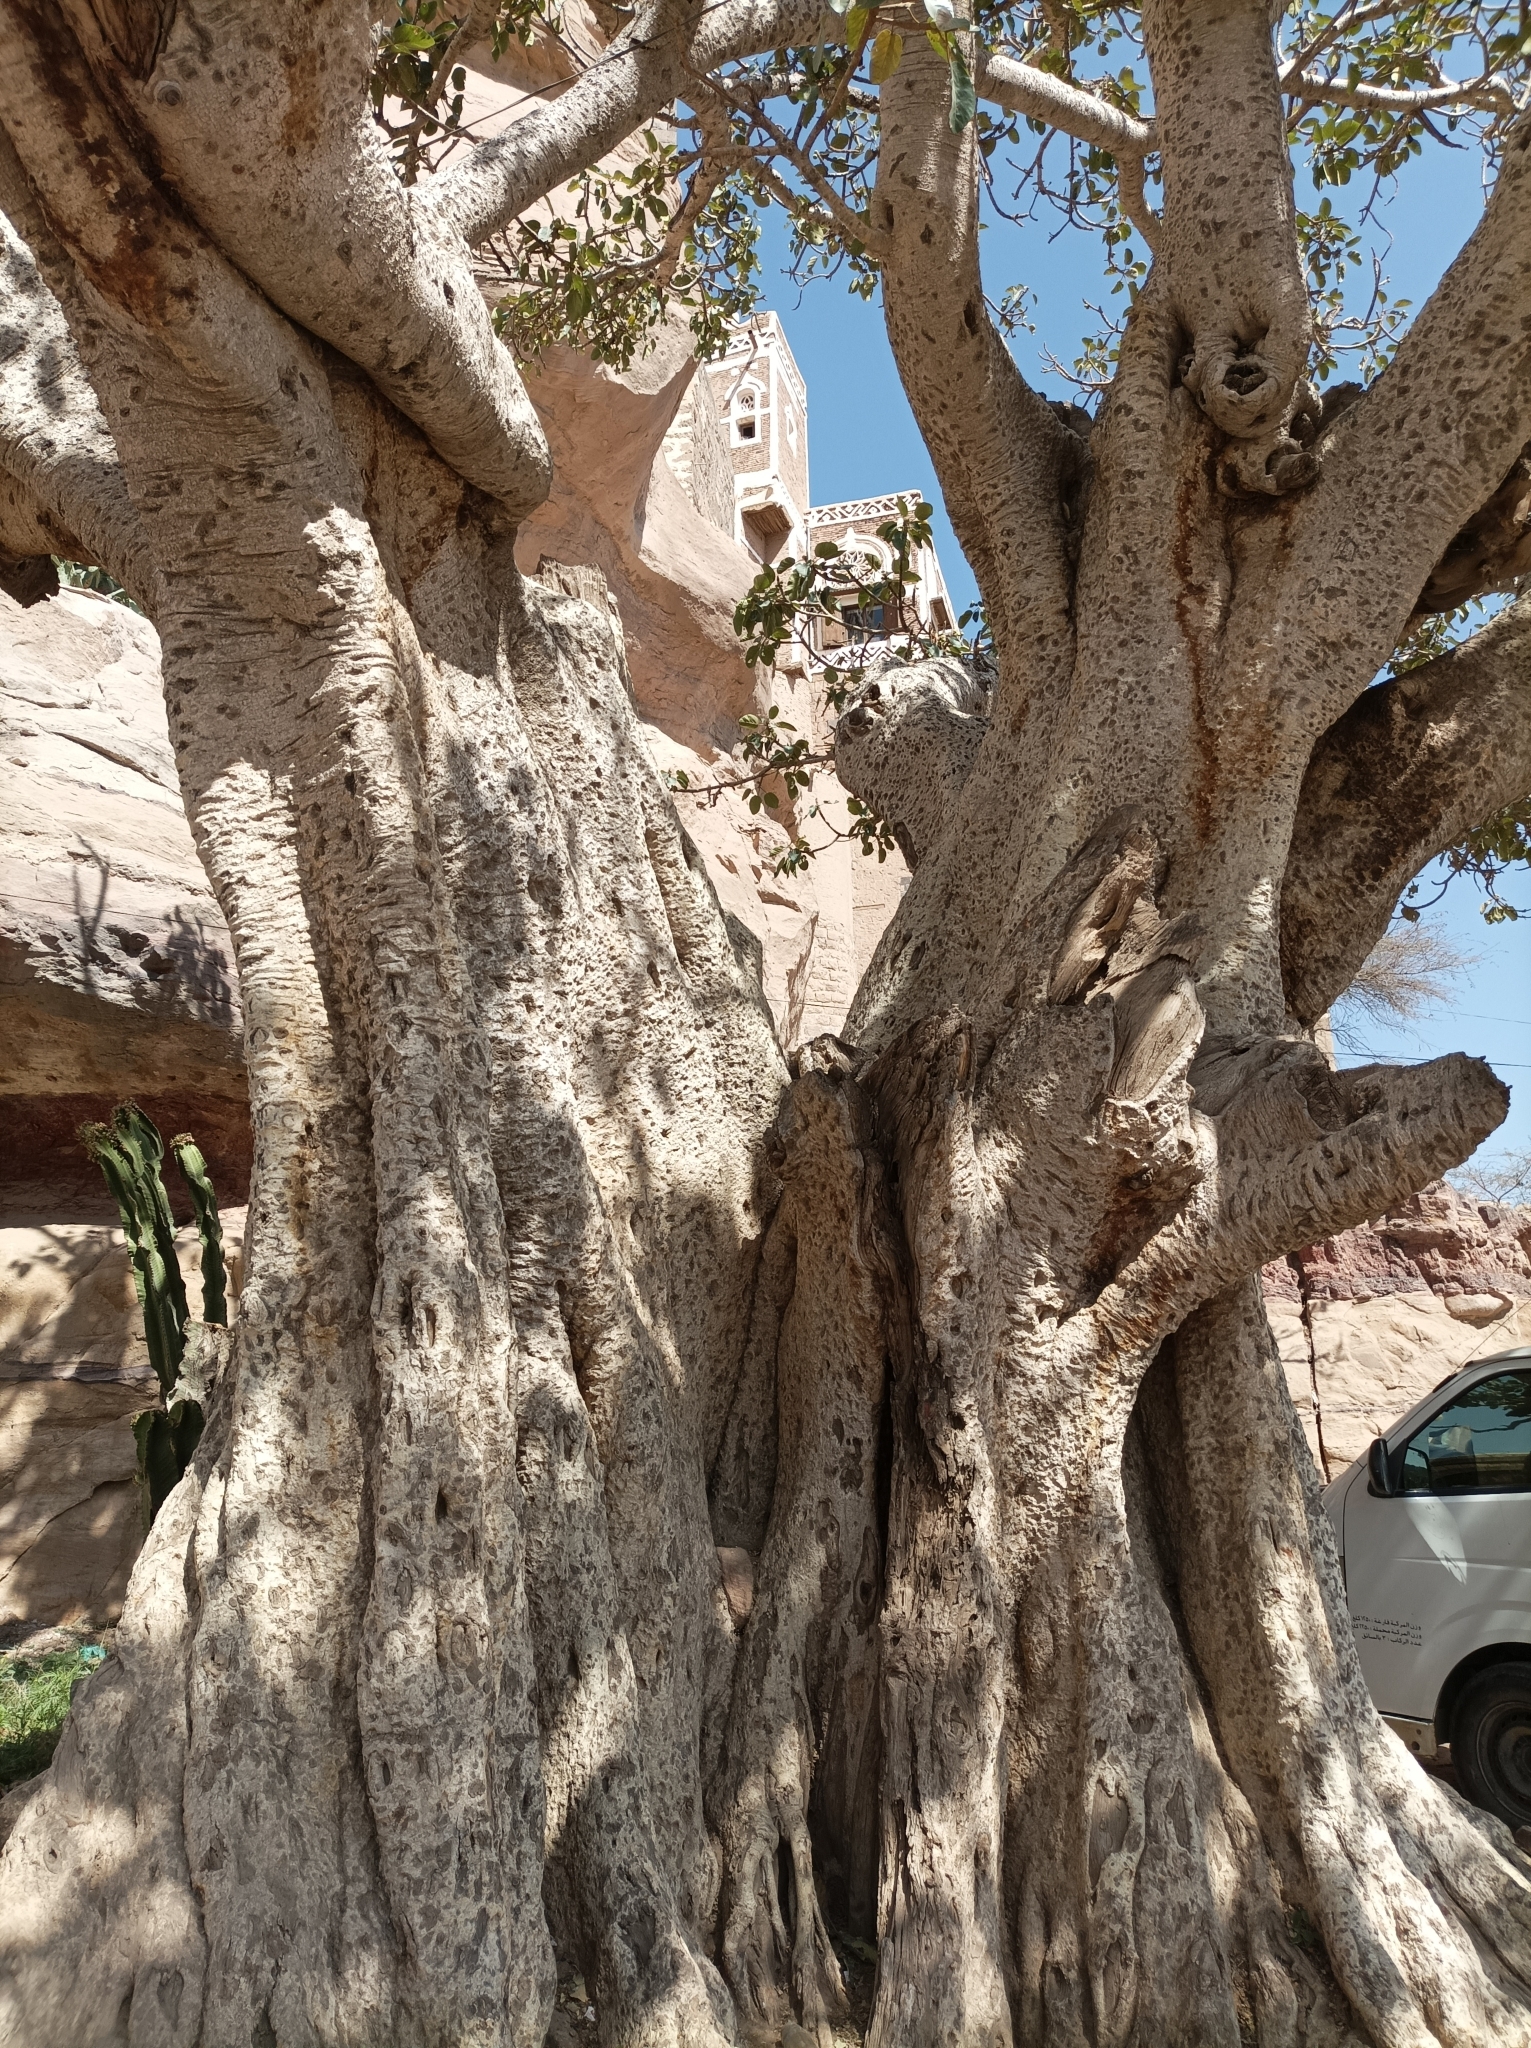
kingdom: Plantae
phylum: Tracheophyta
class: Magnoliopsida
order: Rosales
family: Moraceae
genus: Ficus
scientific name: Ficus sycomorus
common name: Sycomore
